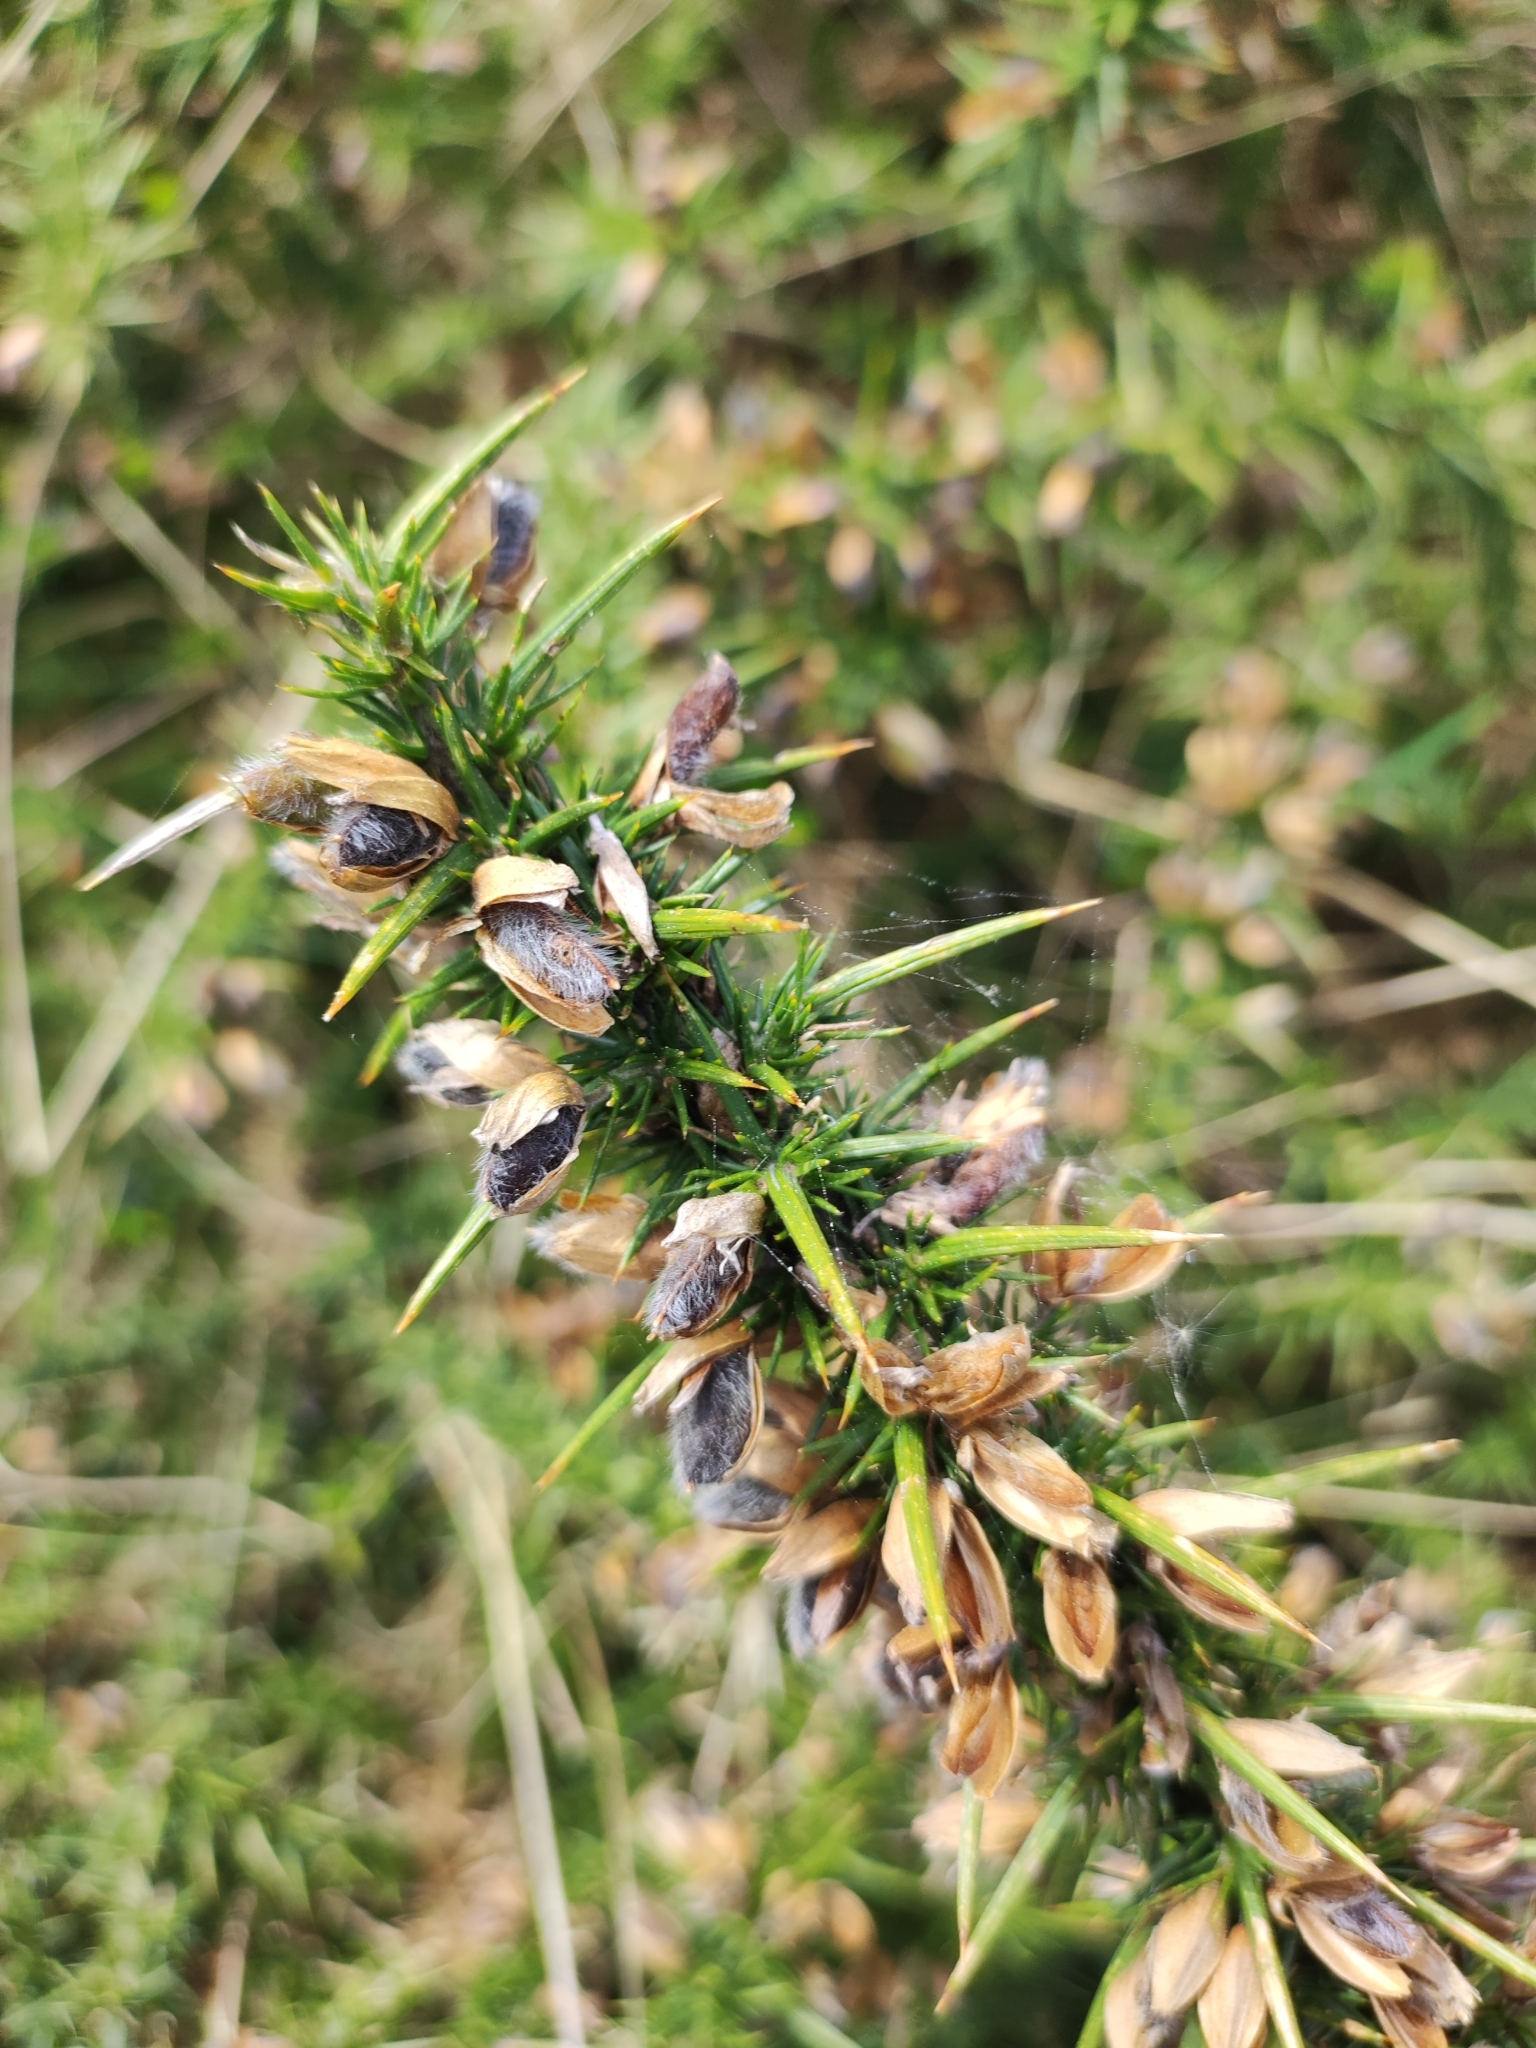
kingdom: Plantae
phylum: Tracheophyta
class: Magnoliopsida
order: Fabales
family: Fabaceae
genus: Ulex
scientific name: Ulex gallii
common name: Western gorse
